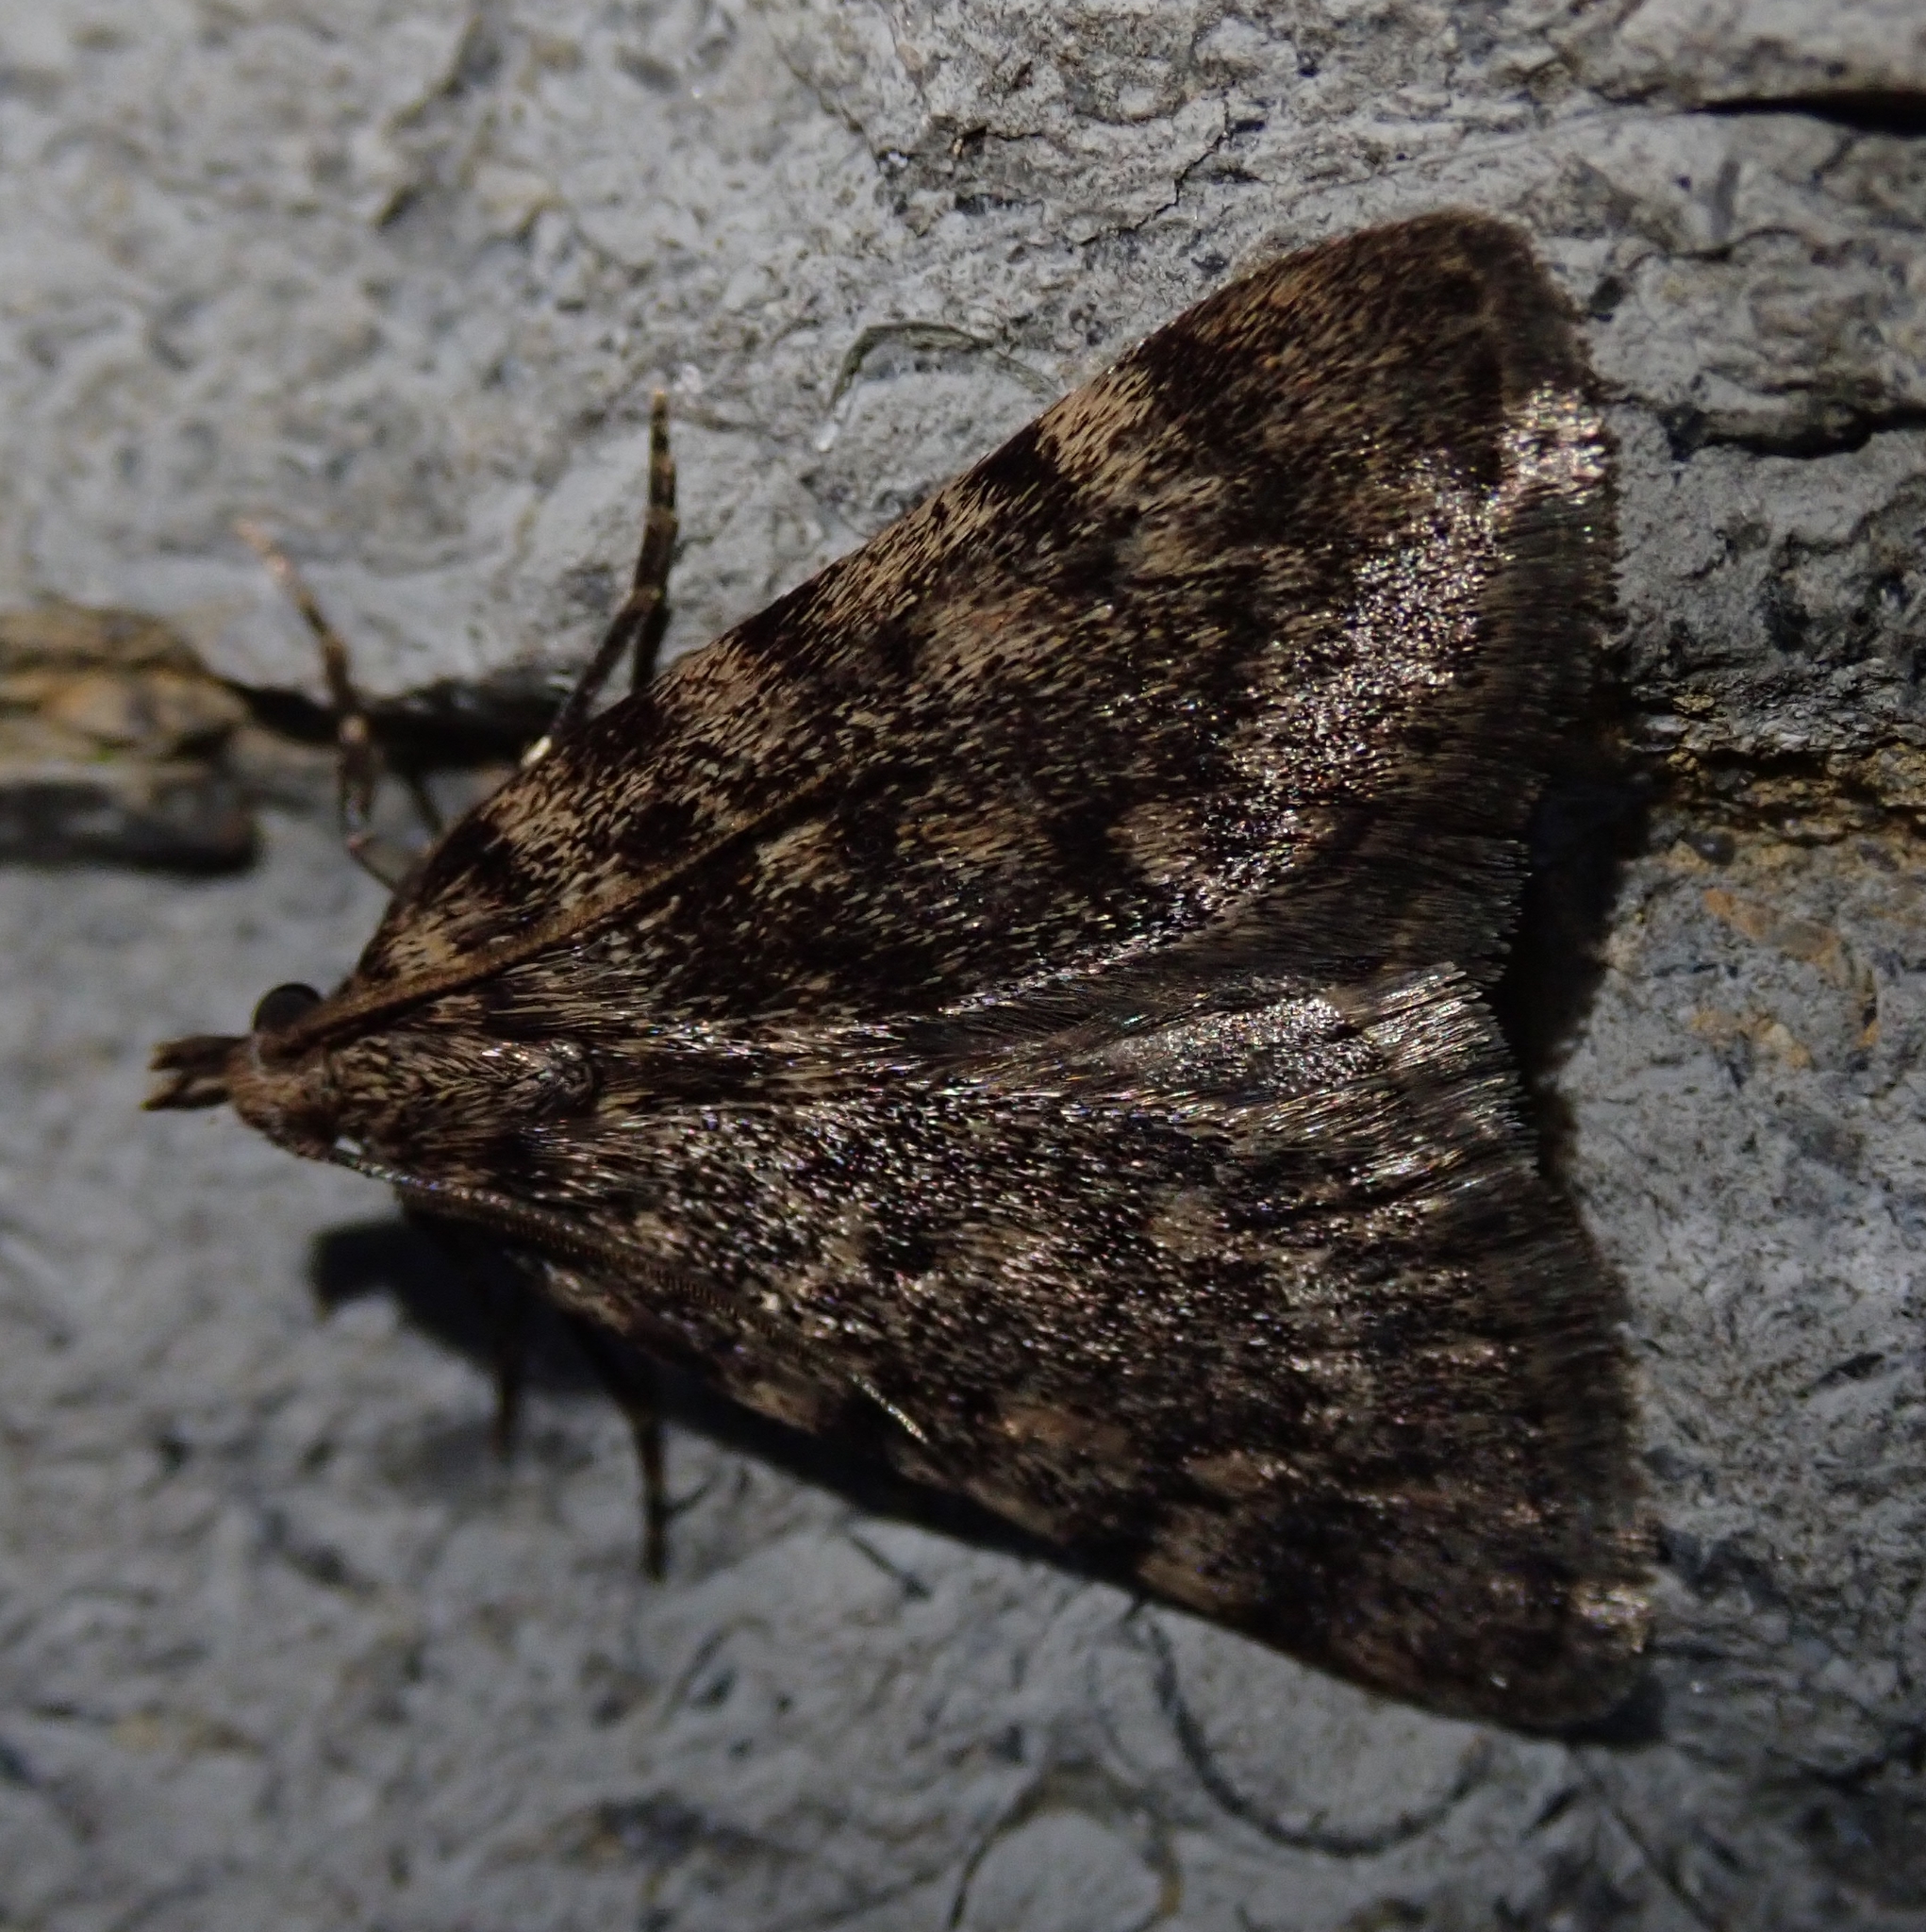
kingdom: Animalia
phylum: Arthropoda
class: Insecta
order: Lepidoptera
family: Pyralidae
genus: Aglossa
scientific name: Aglossa pinguinalis
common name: Large tabby
